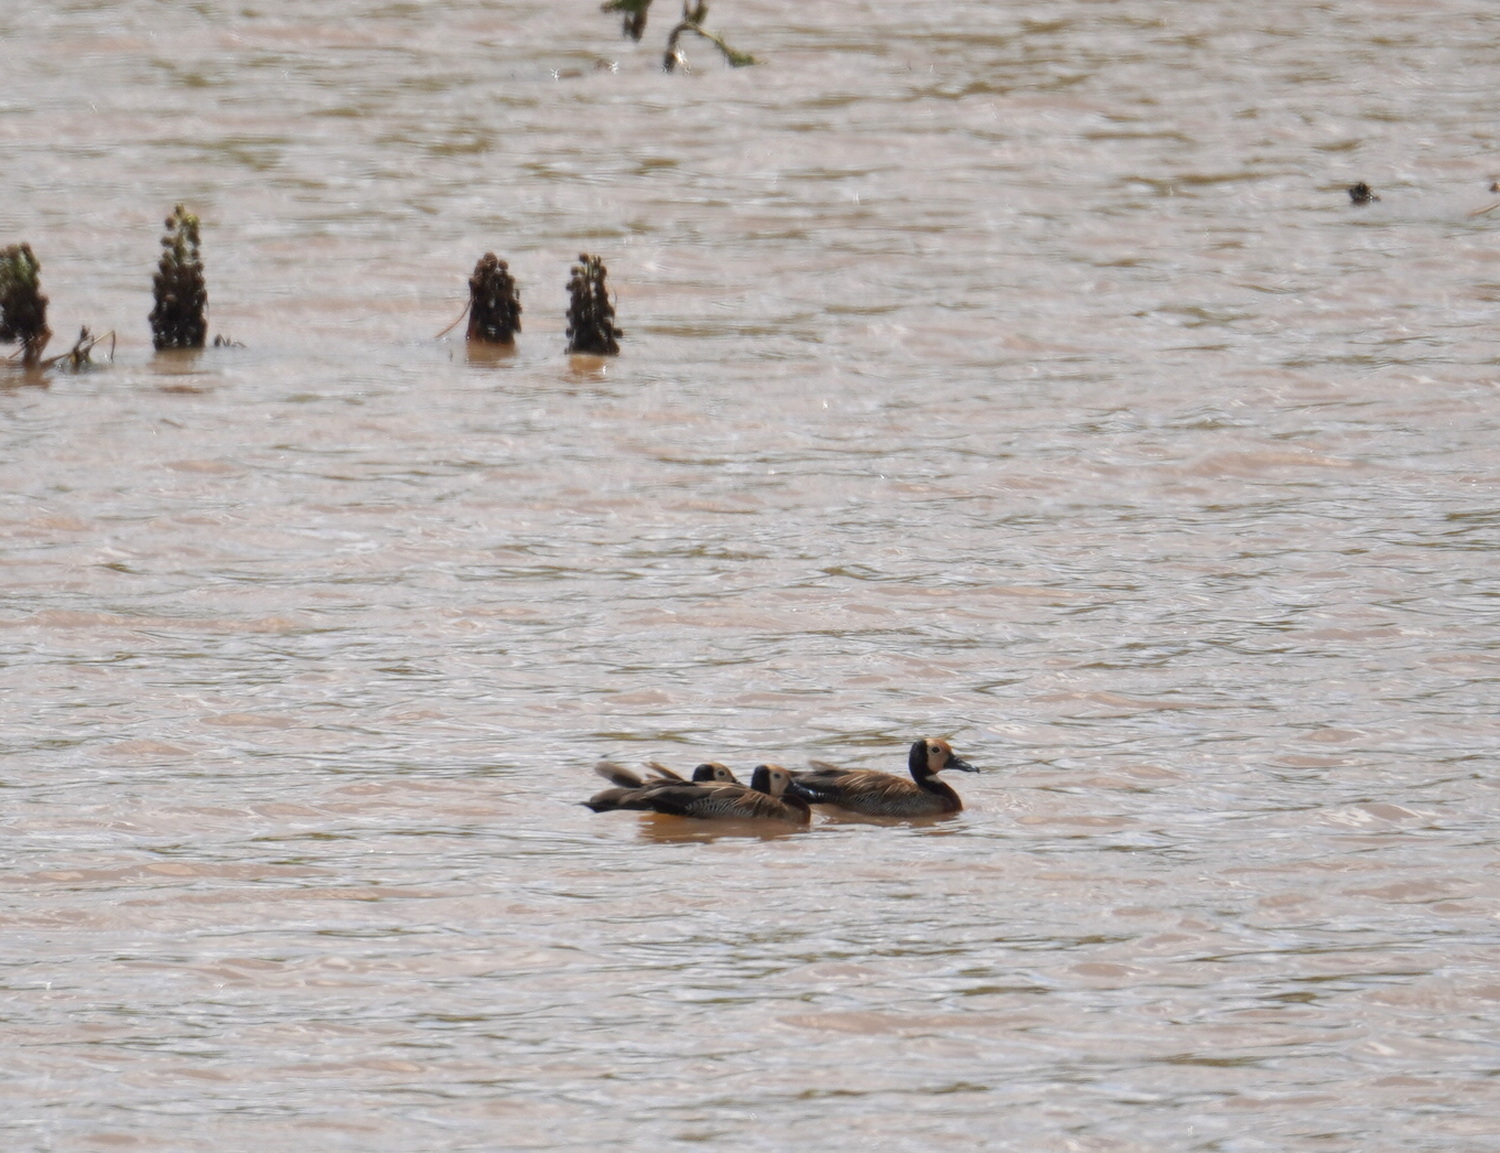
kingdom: Animalia
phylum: Chordata
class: Aves
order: Anseriformes
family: Anatidae
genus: Dendrocygna
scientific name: Dendrocygna viduata
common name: White-faced whistling duck
